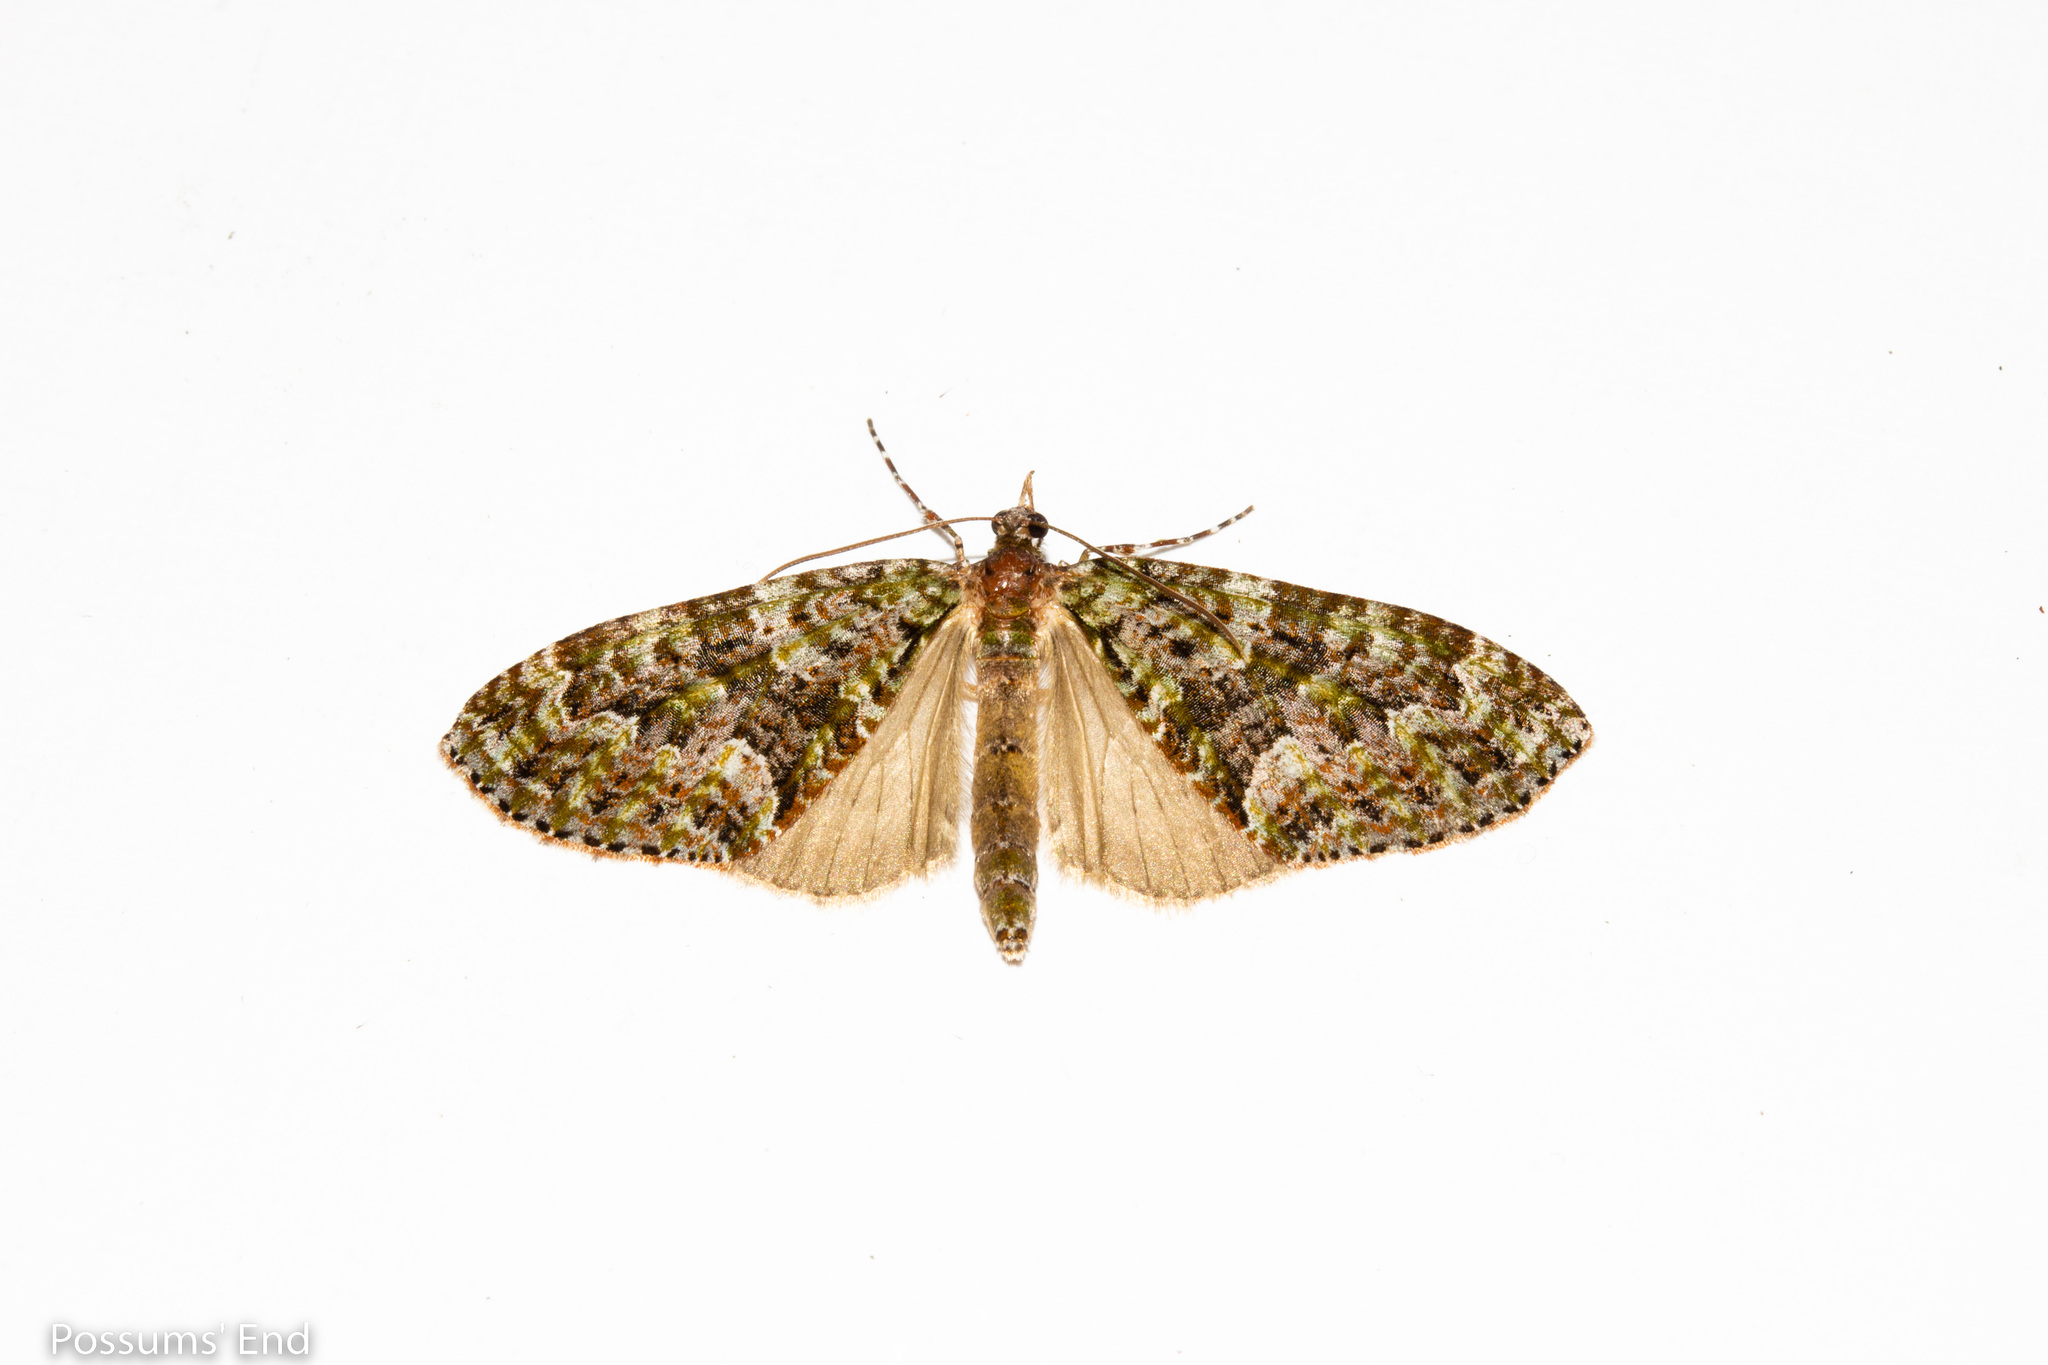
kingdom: Animalia
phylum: Arthropoda
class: Insecta
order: Lepidoptera
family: Geometridae
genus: Tatosoma
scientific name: Tatosoma agrionata
